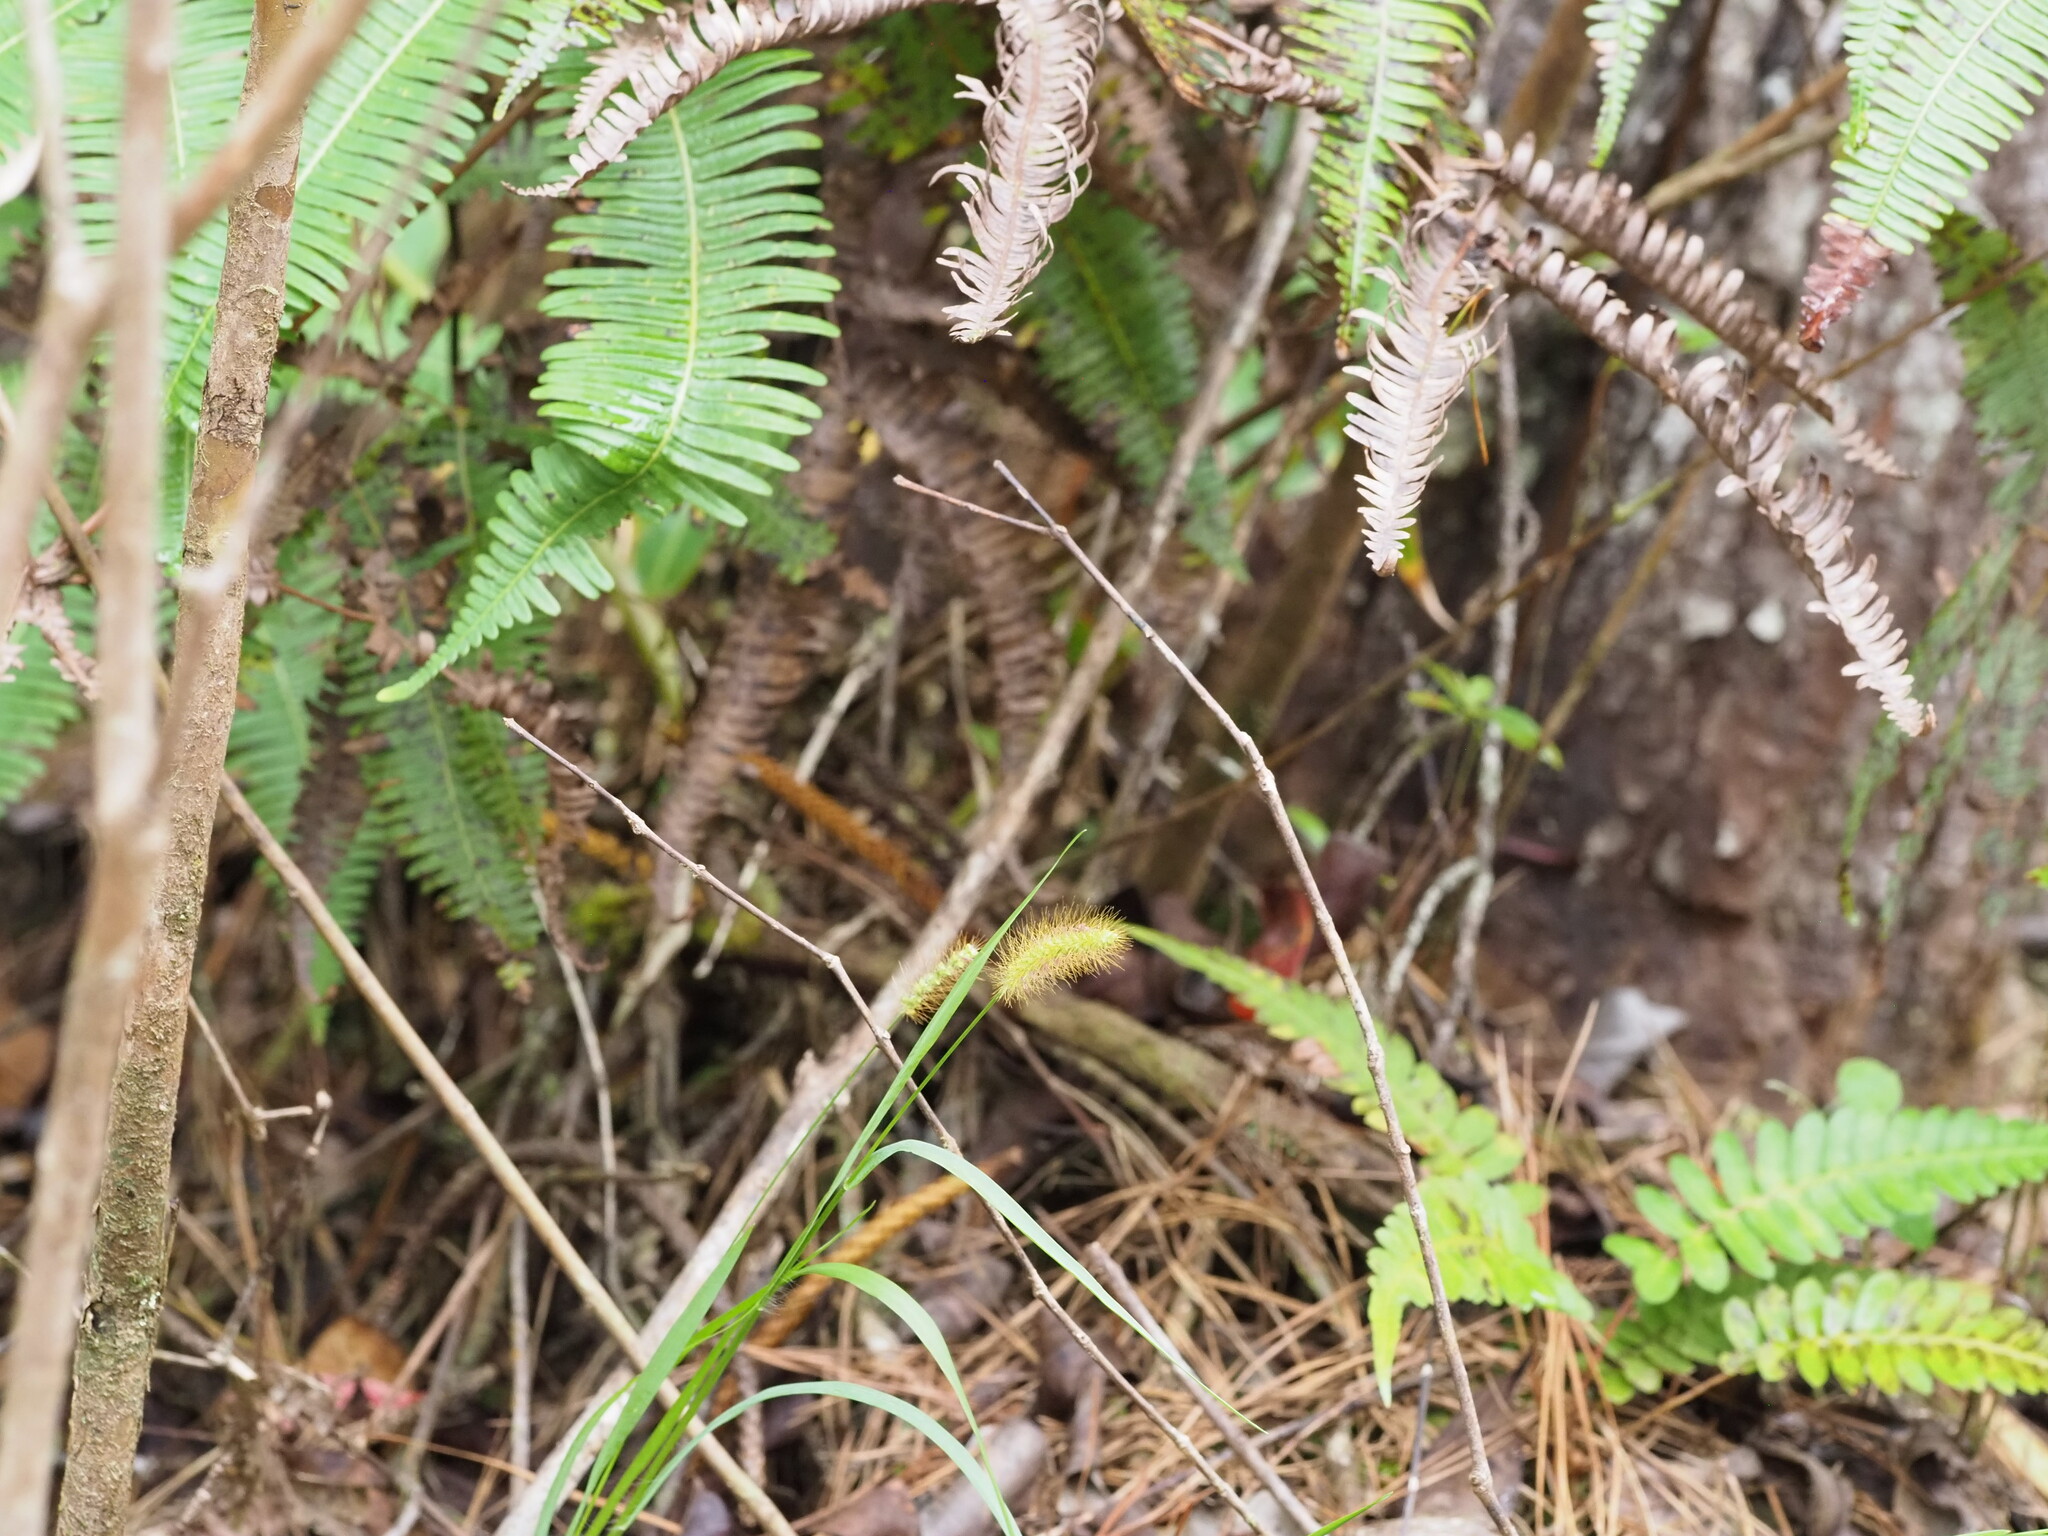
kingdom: Plantae
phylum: Tracheophyta
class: Liliopsida
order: Poales
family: Poaceae
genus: Setaria
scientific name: Setaria parviflora
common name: Knotroot bristle-grass
